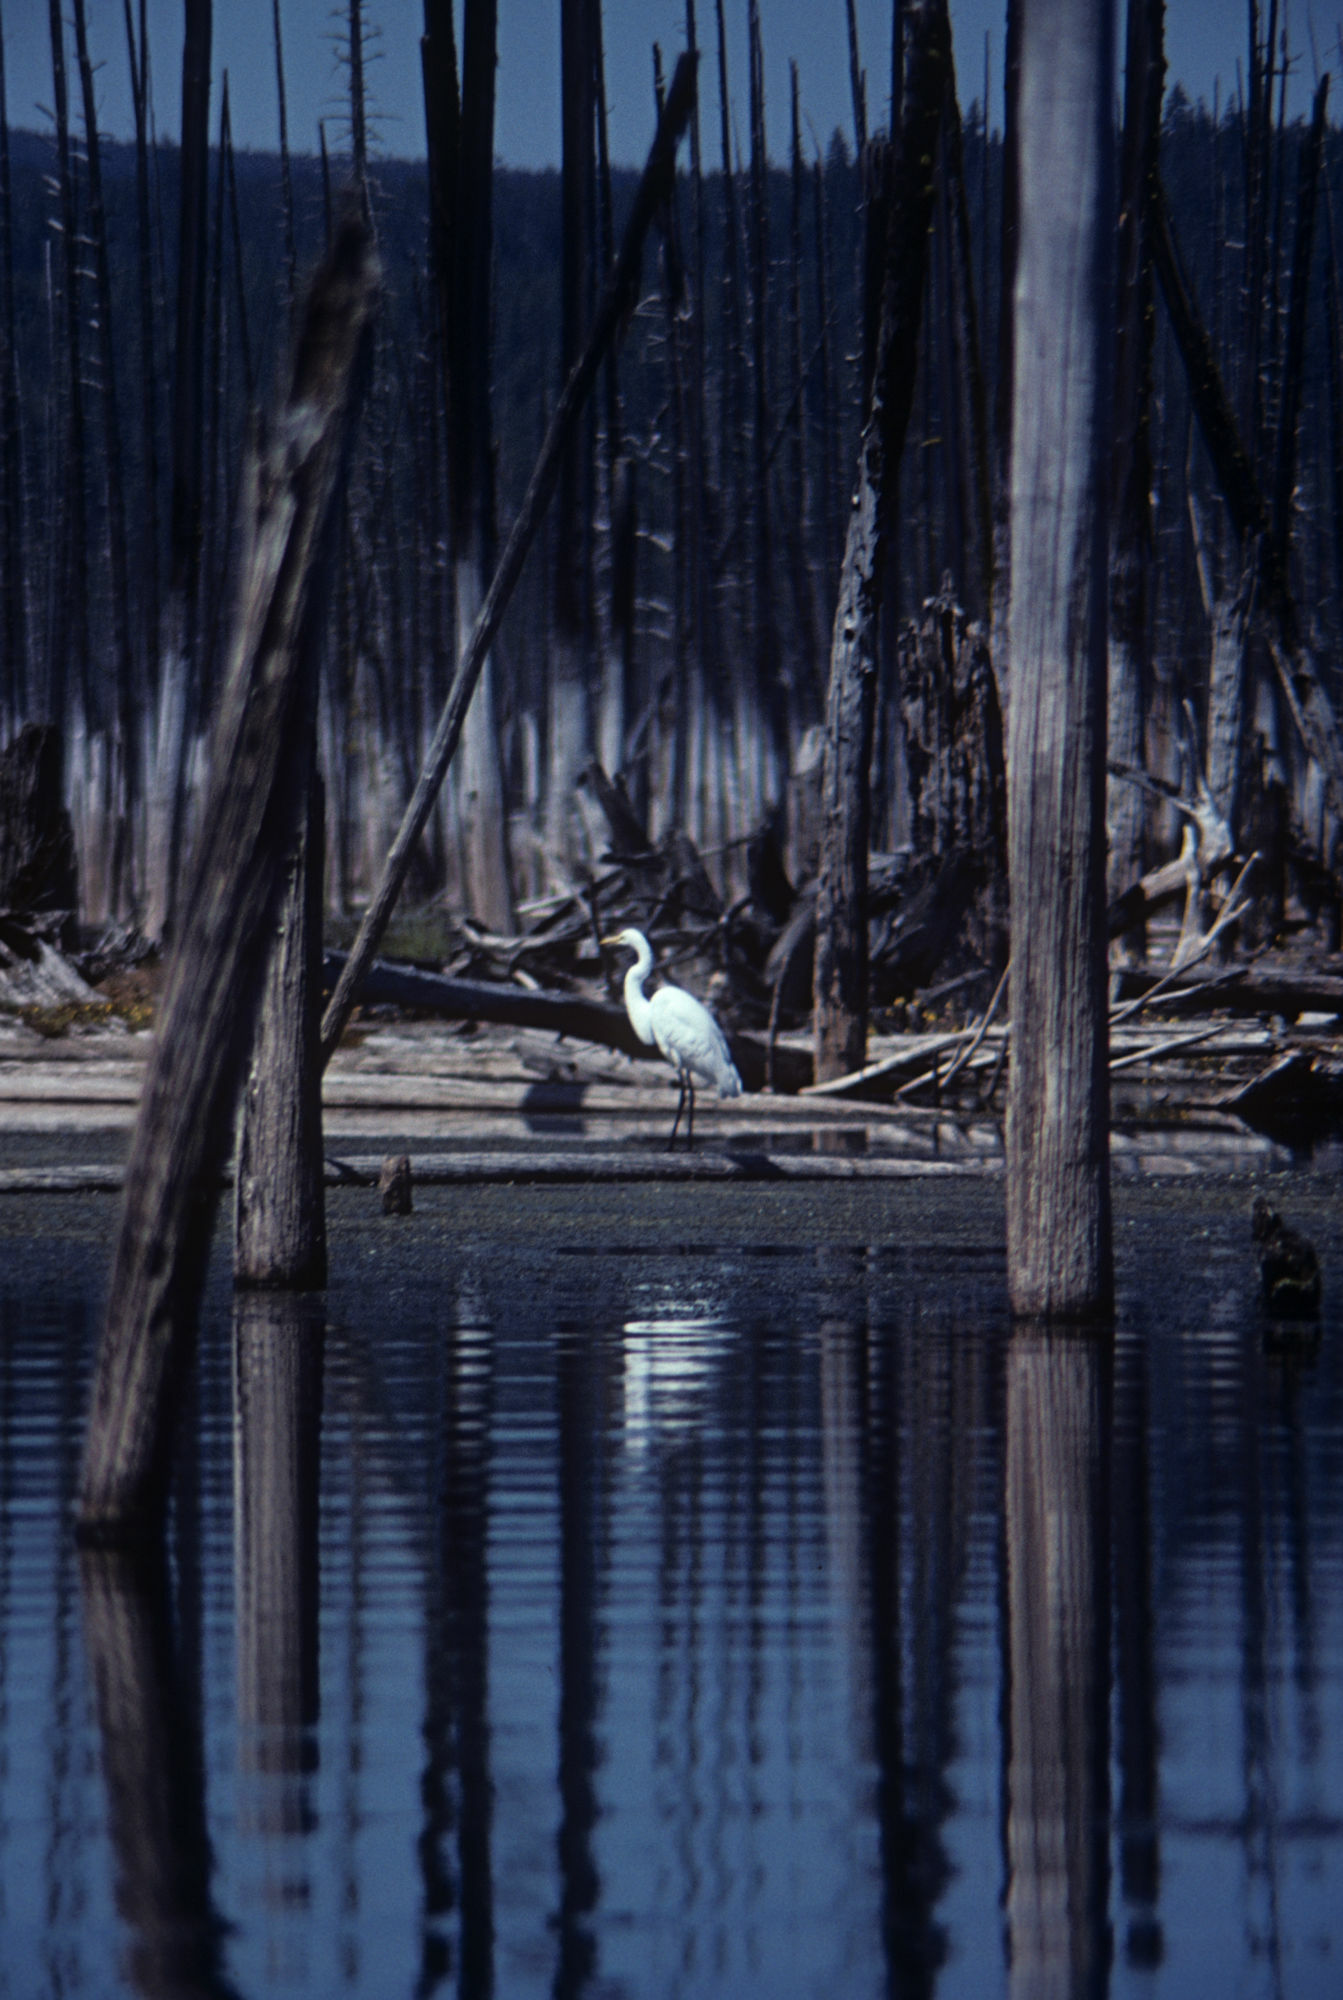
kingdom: Animalia
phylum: Chordata
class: Aves
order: Pelecaniformes
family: Ardeidae
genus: Ardea
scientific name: Ardea alba
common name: Great egret
